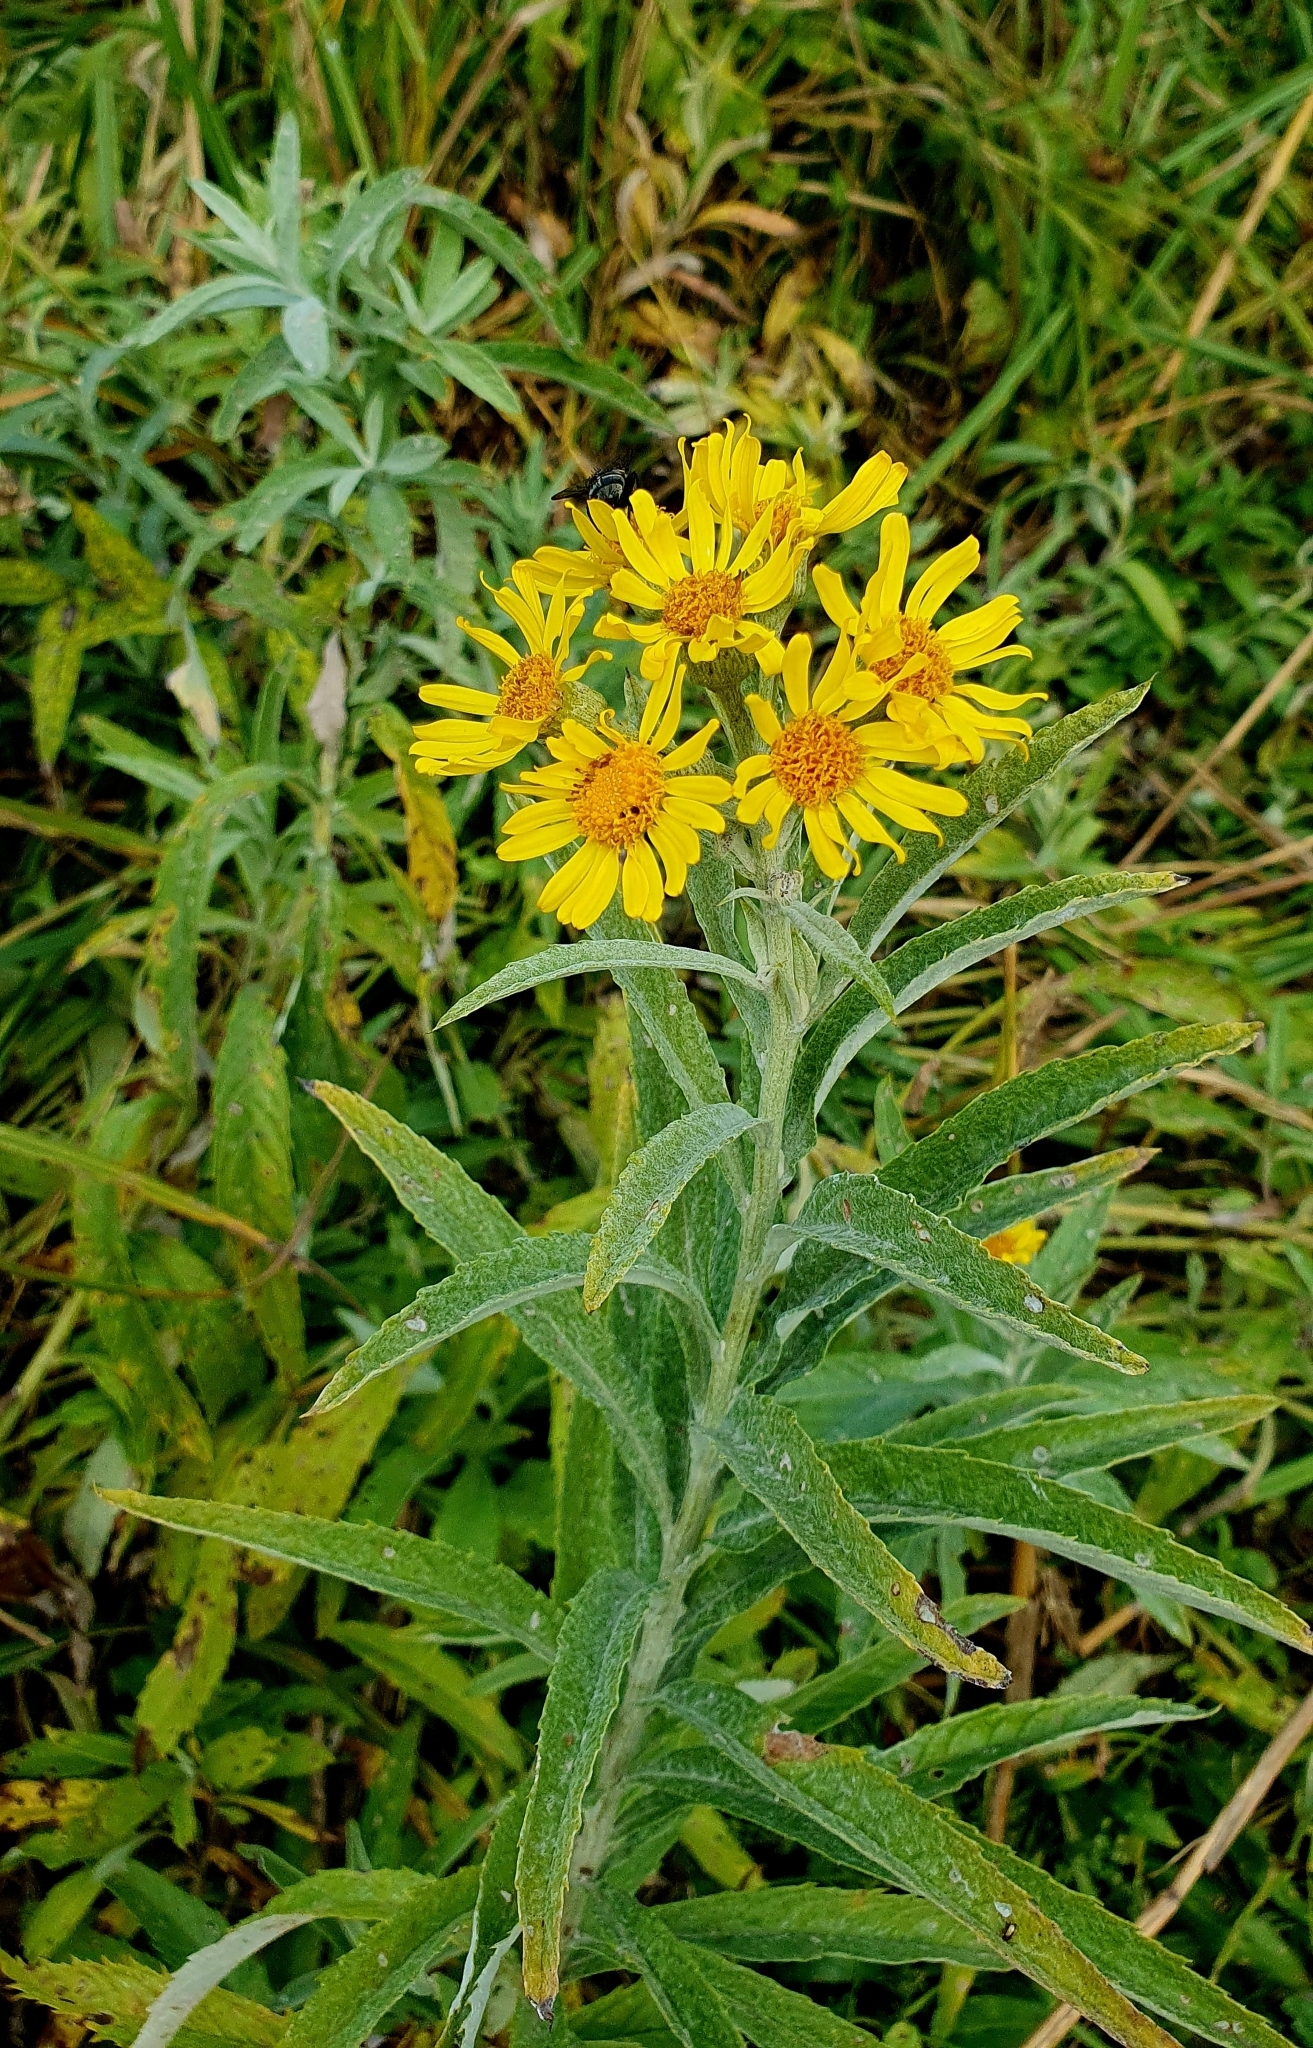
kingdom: Plantae
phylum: Tracheophyta
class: Magnoliopsida
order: Asterales
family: Asteraceae
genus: Jacobaea
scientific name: Jacobaea paludosa
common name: Fen ragwort
